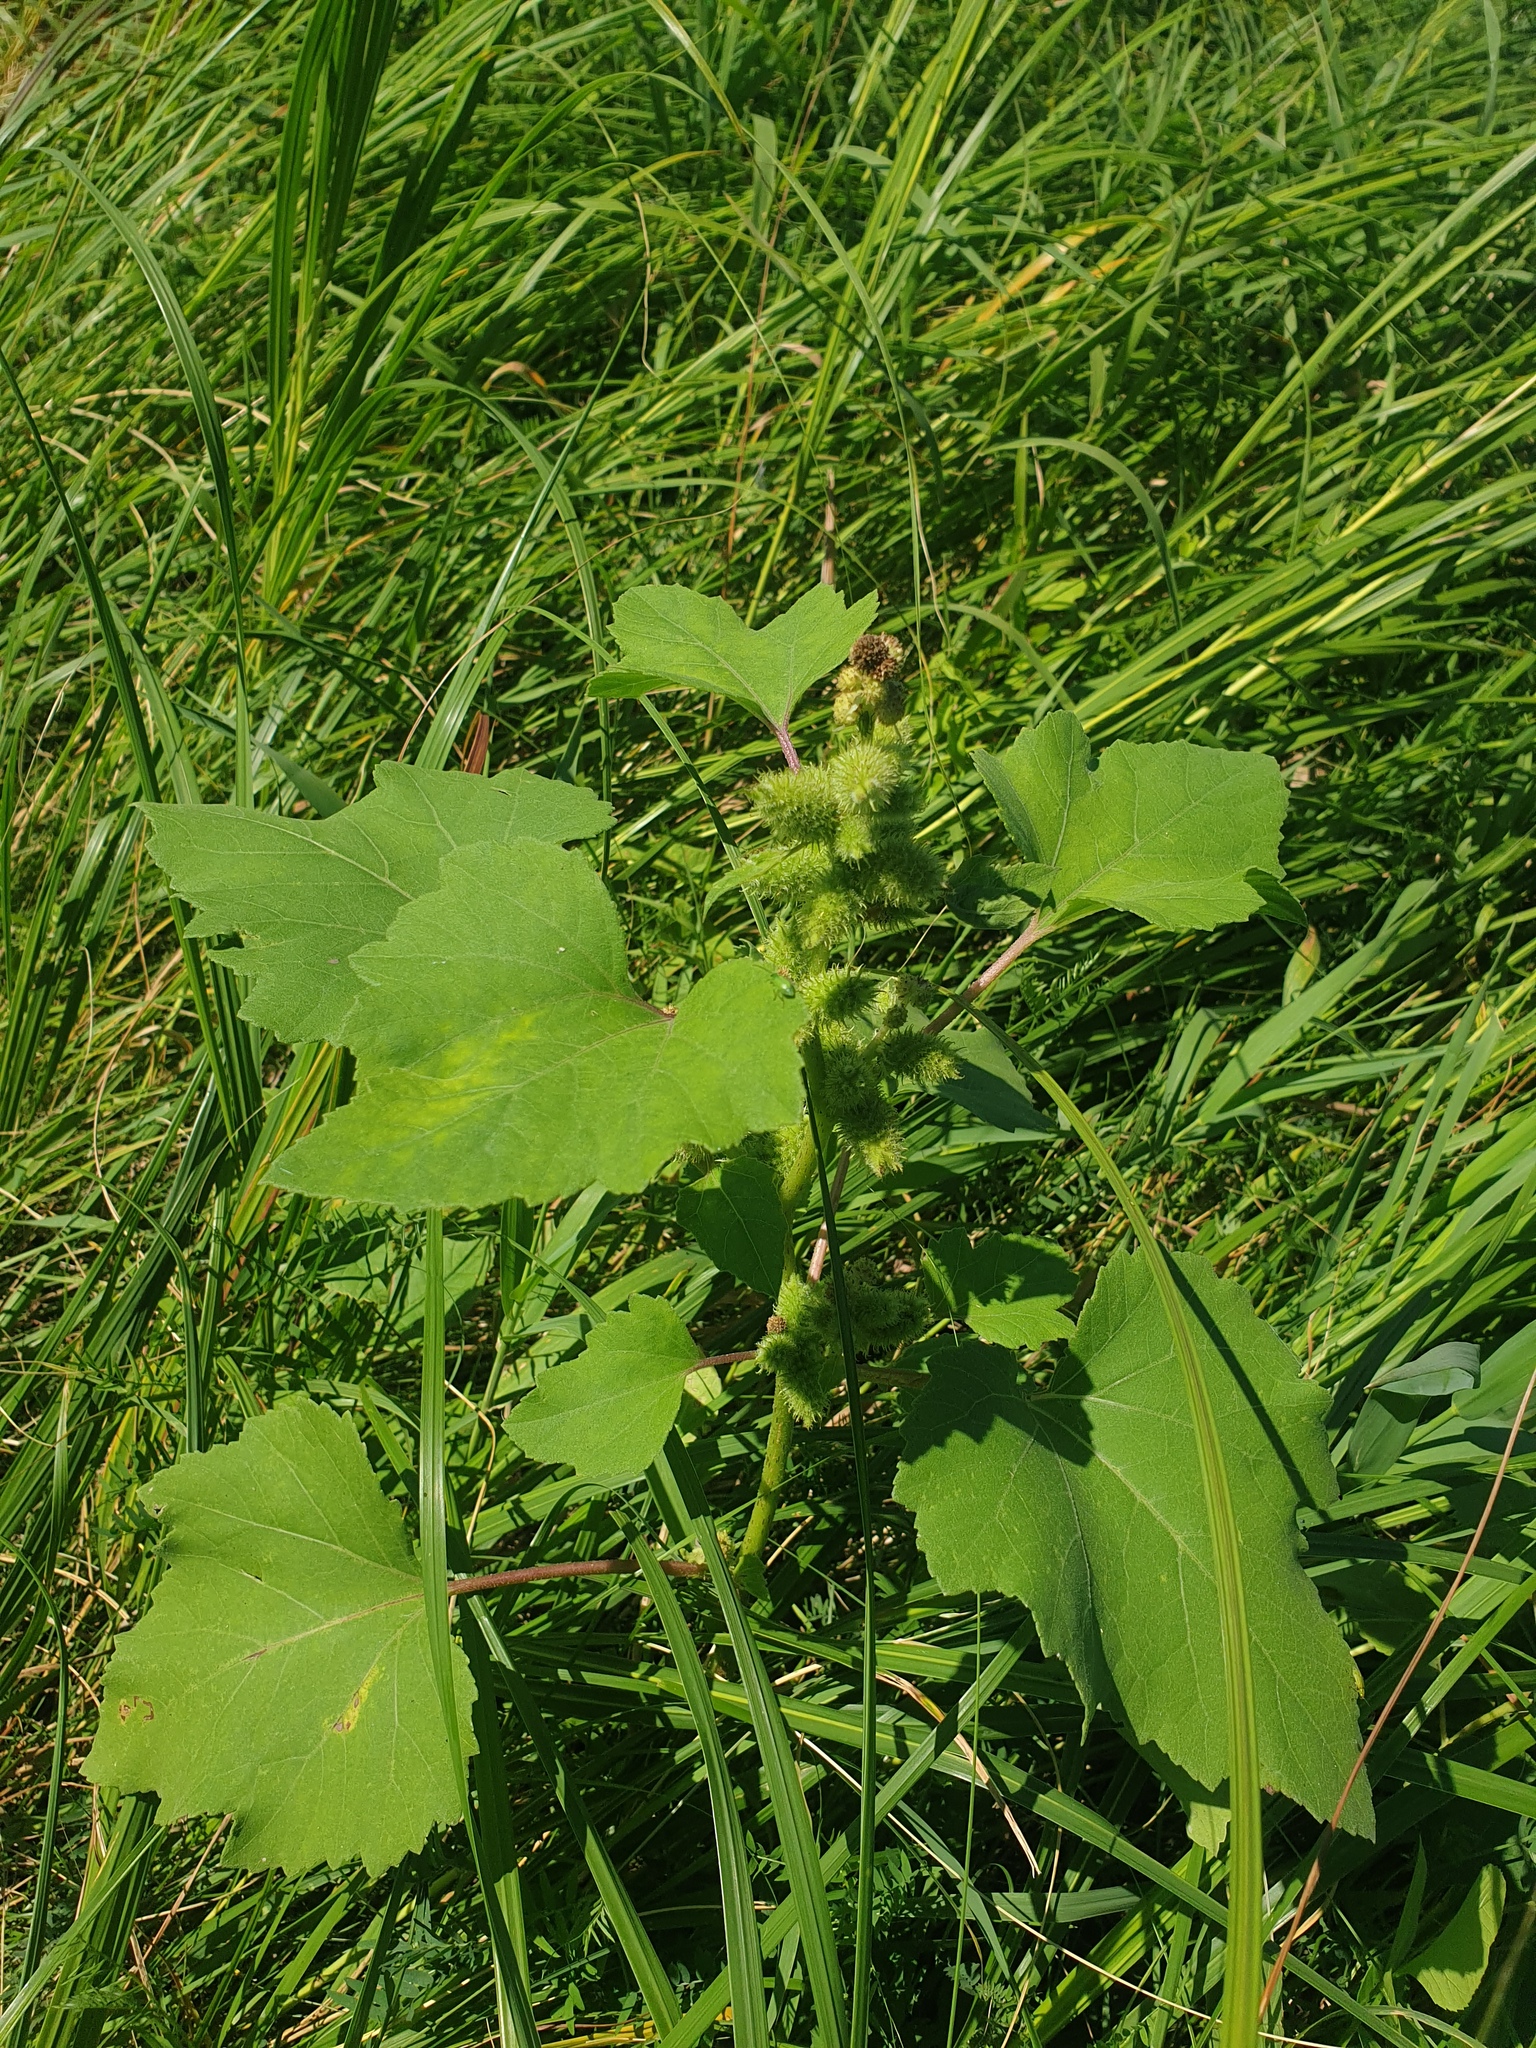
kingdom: Plantae
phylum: Tracheophyta
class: Magnoliopsida
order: Asterales
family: Asteraceae
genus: Xanthium
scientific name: Xanthium strumarium
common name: Rough cocklebur
